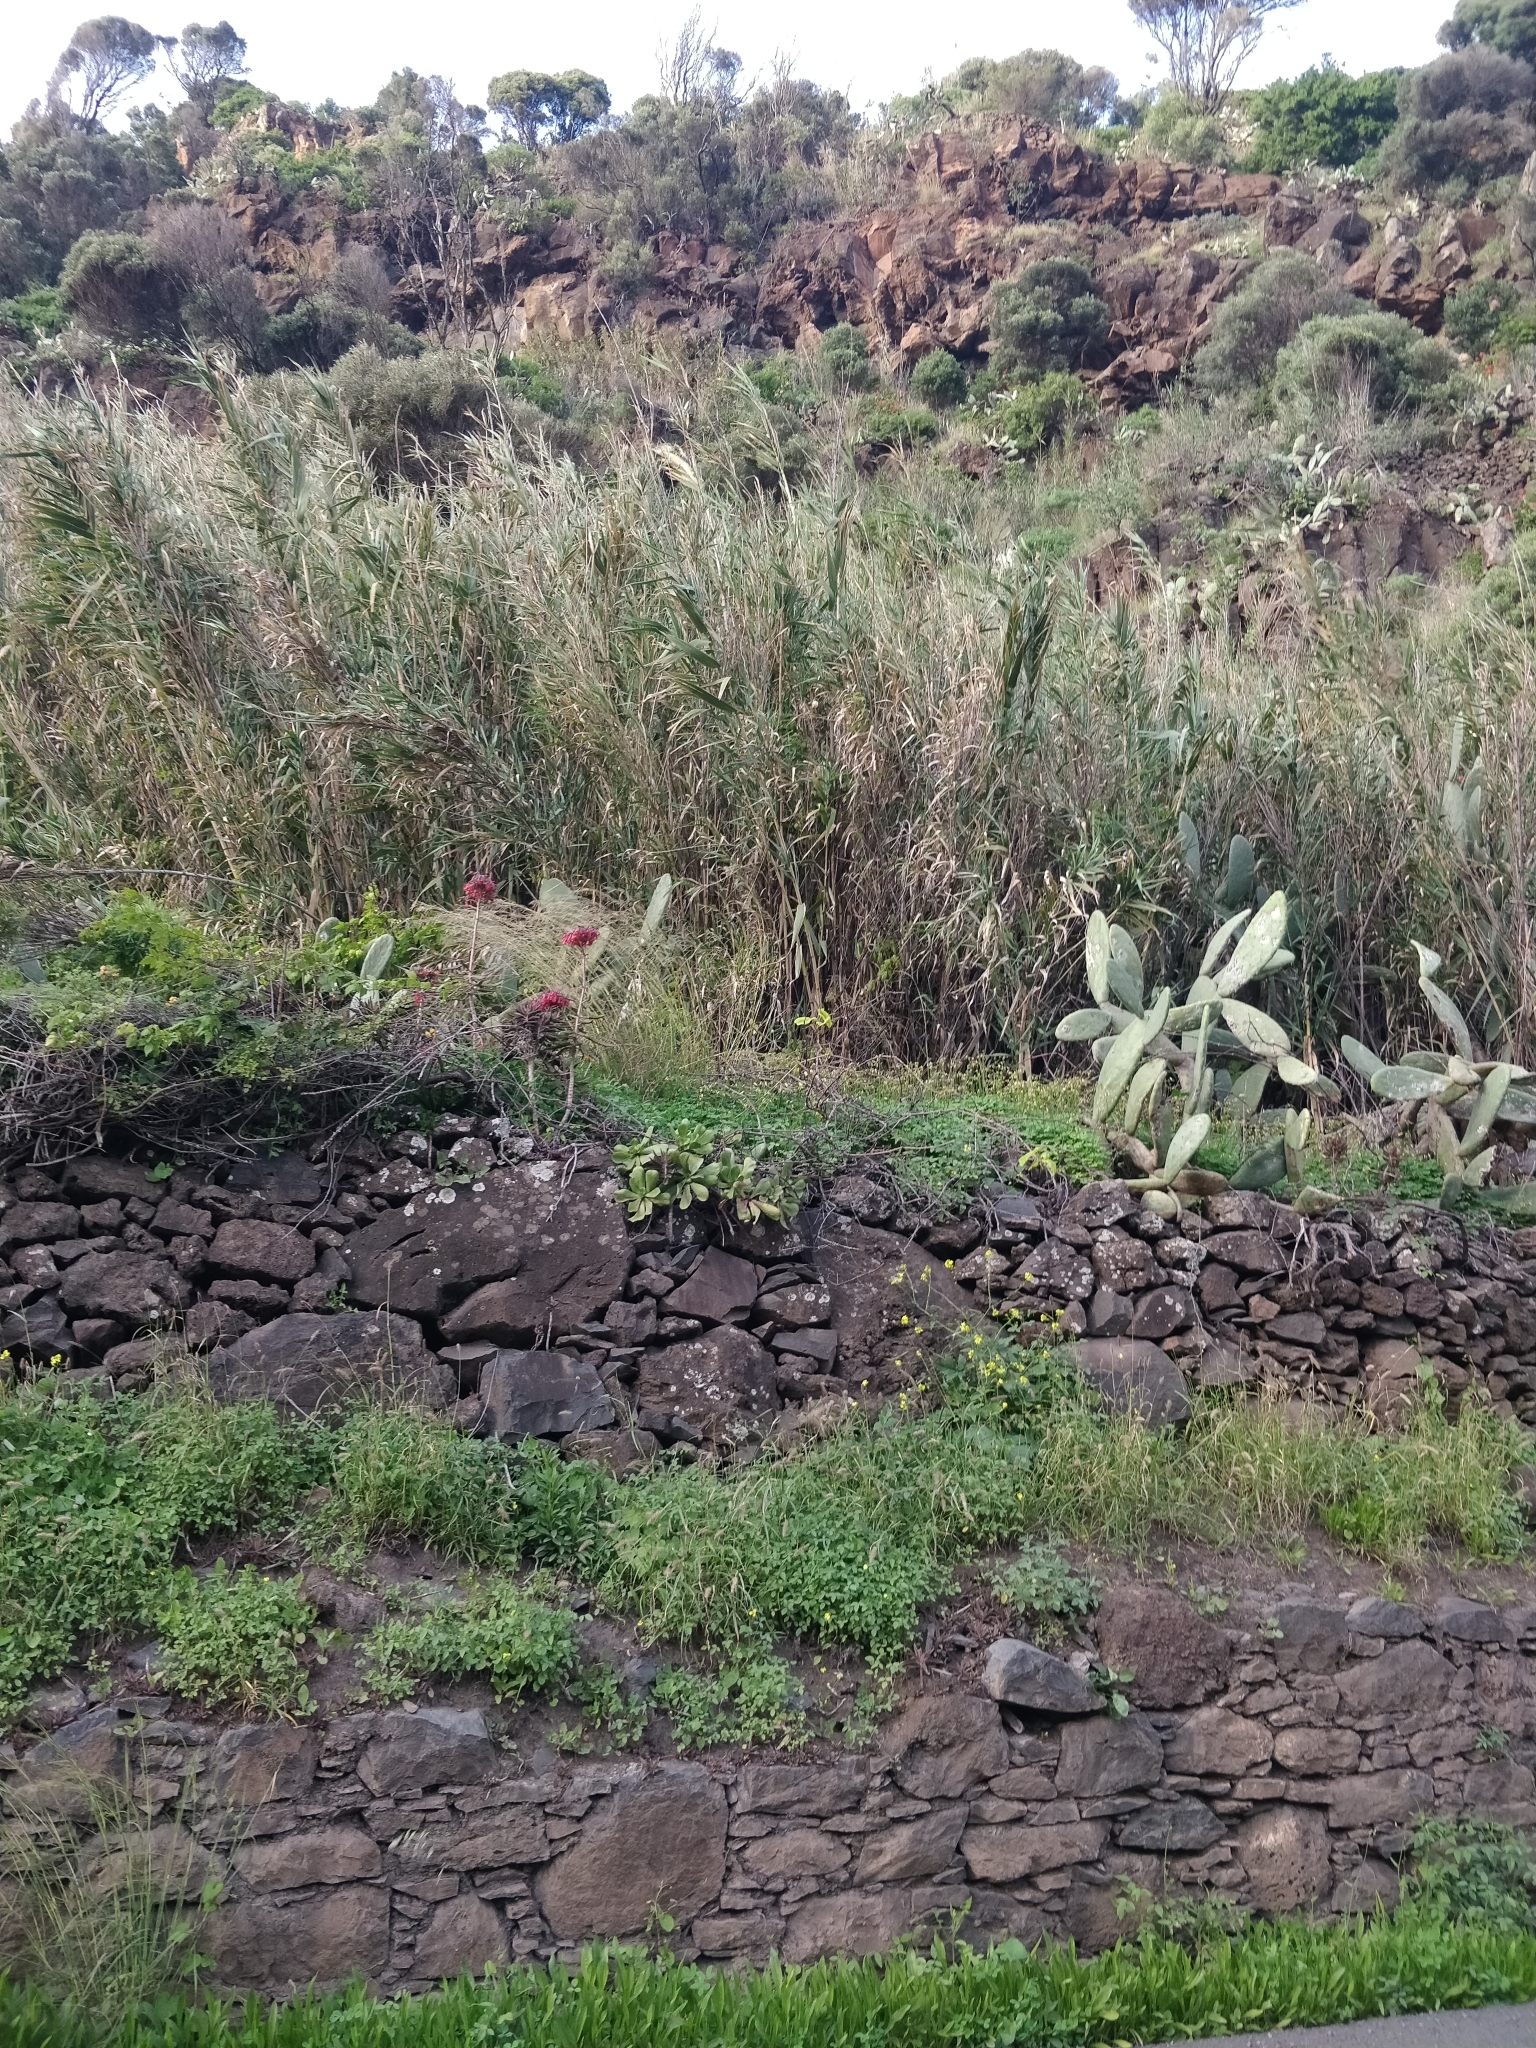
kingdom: Plantae
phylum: Tracheophyta
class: Liliopsida
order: Poales
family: Poaceae
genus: Arundo
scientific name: Arundo donax
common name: Giant reed
